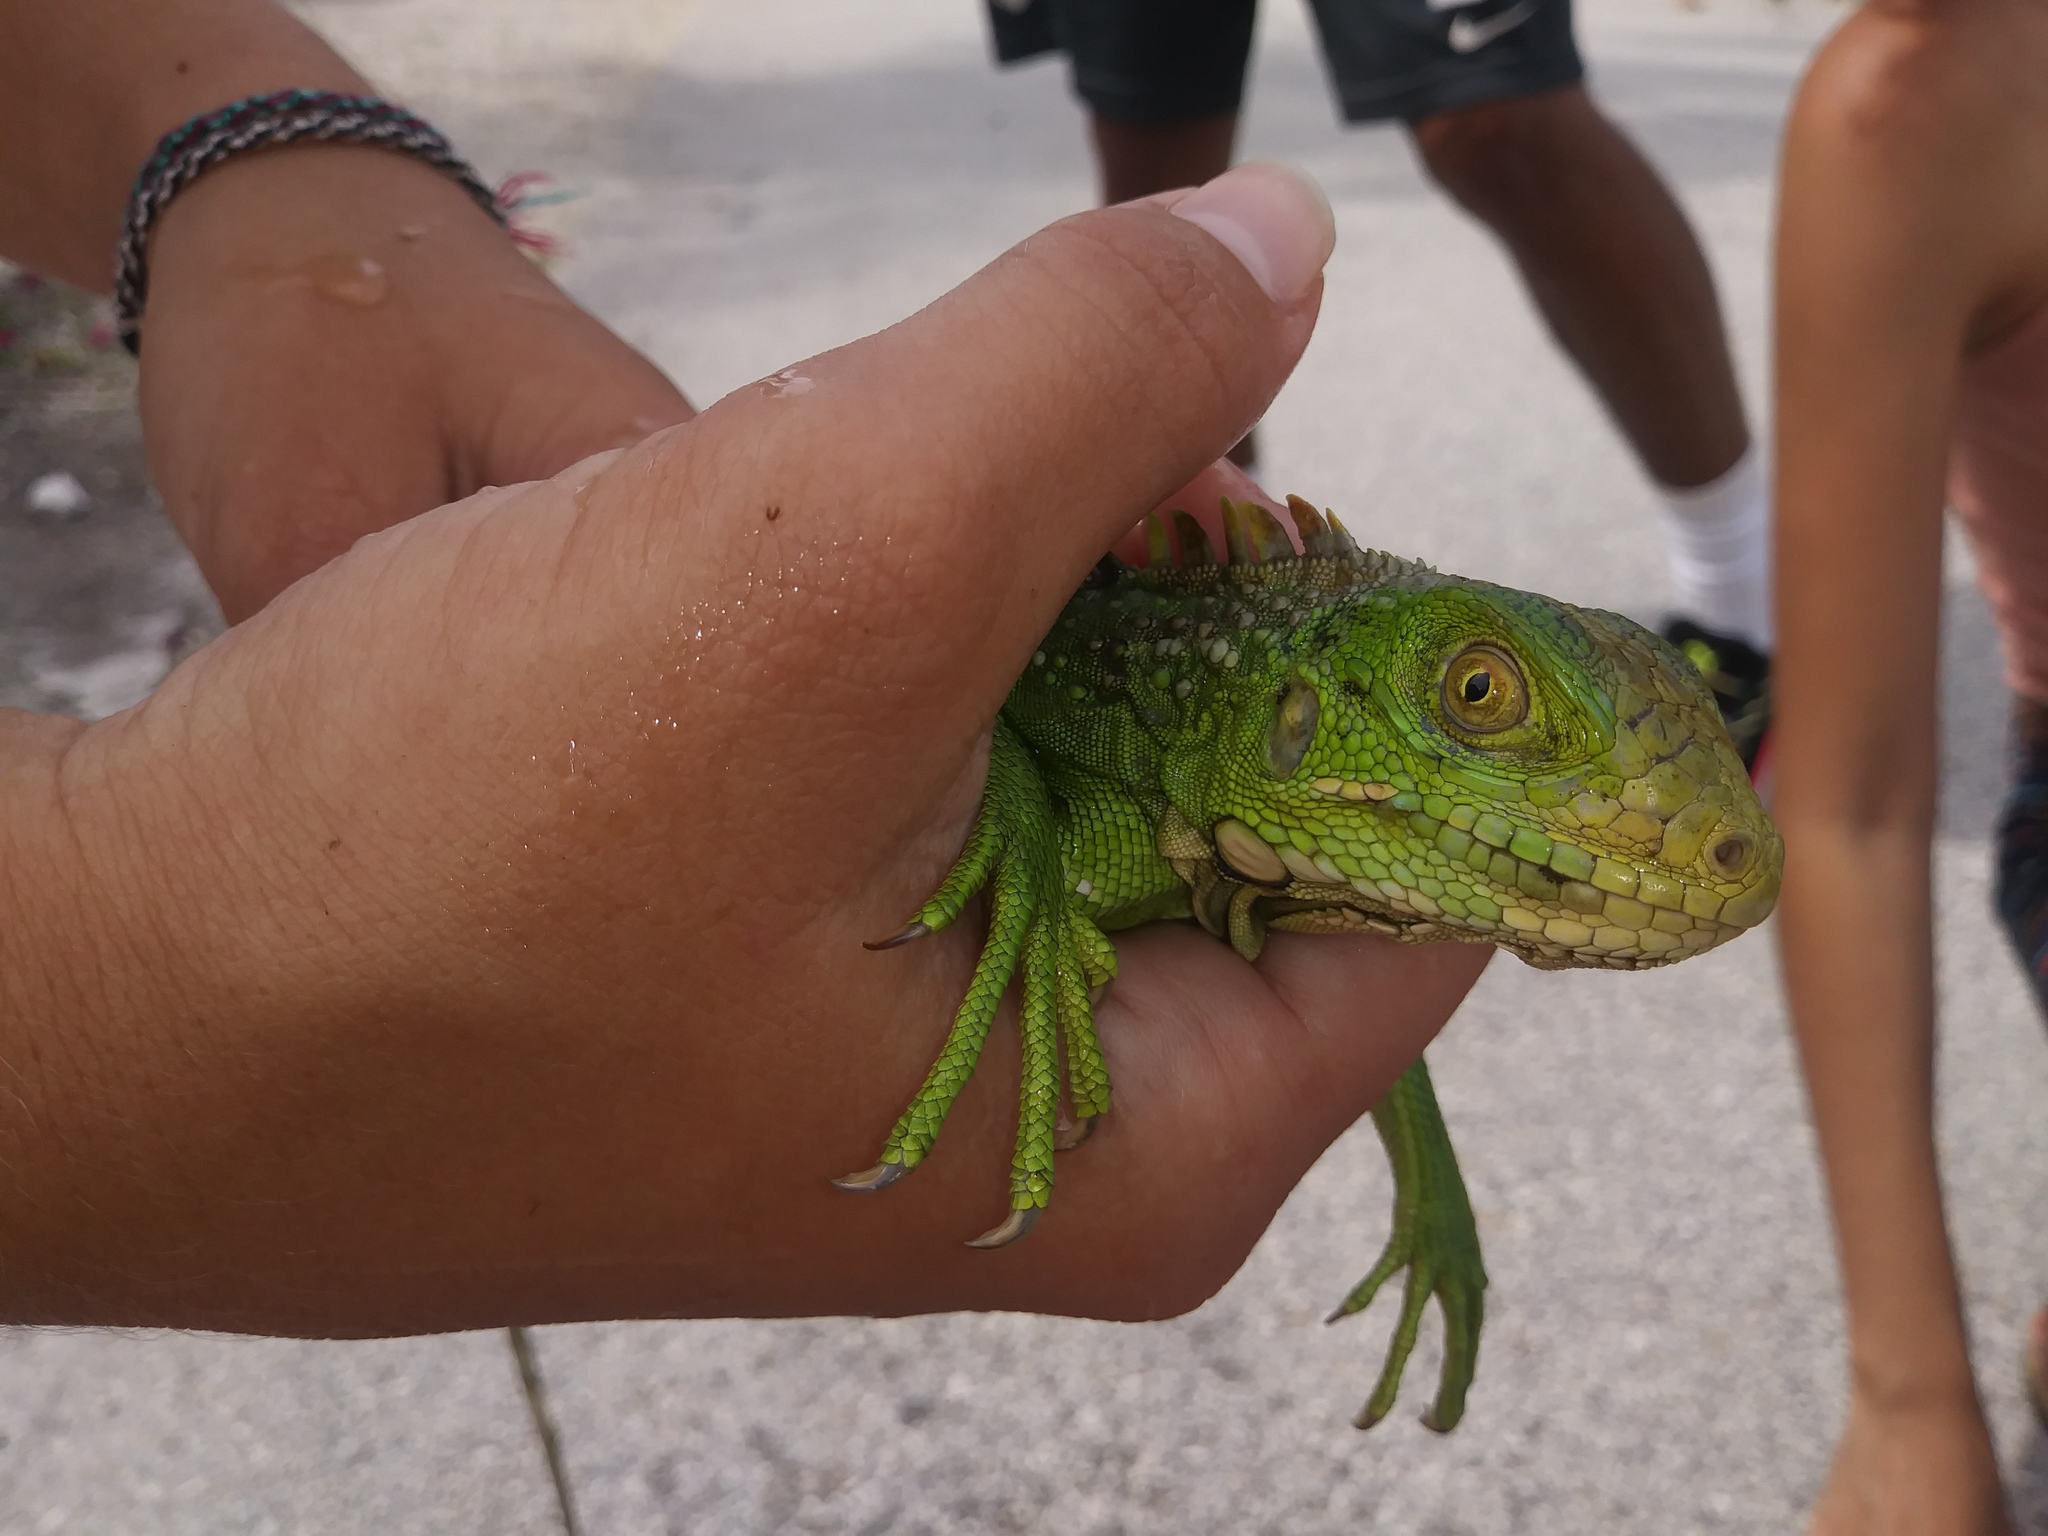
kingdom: Animalia
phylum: Chordata
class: Squamata
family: Iguanidae
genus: Iguana
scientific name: Iguana iguana
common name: Green iguana
